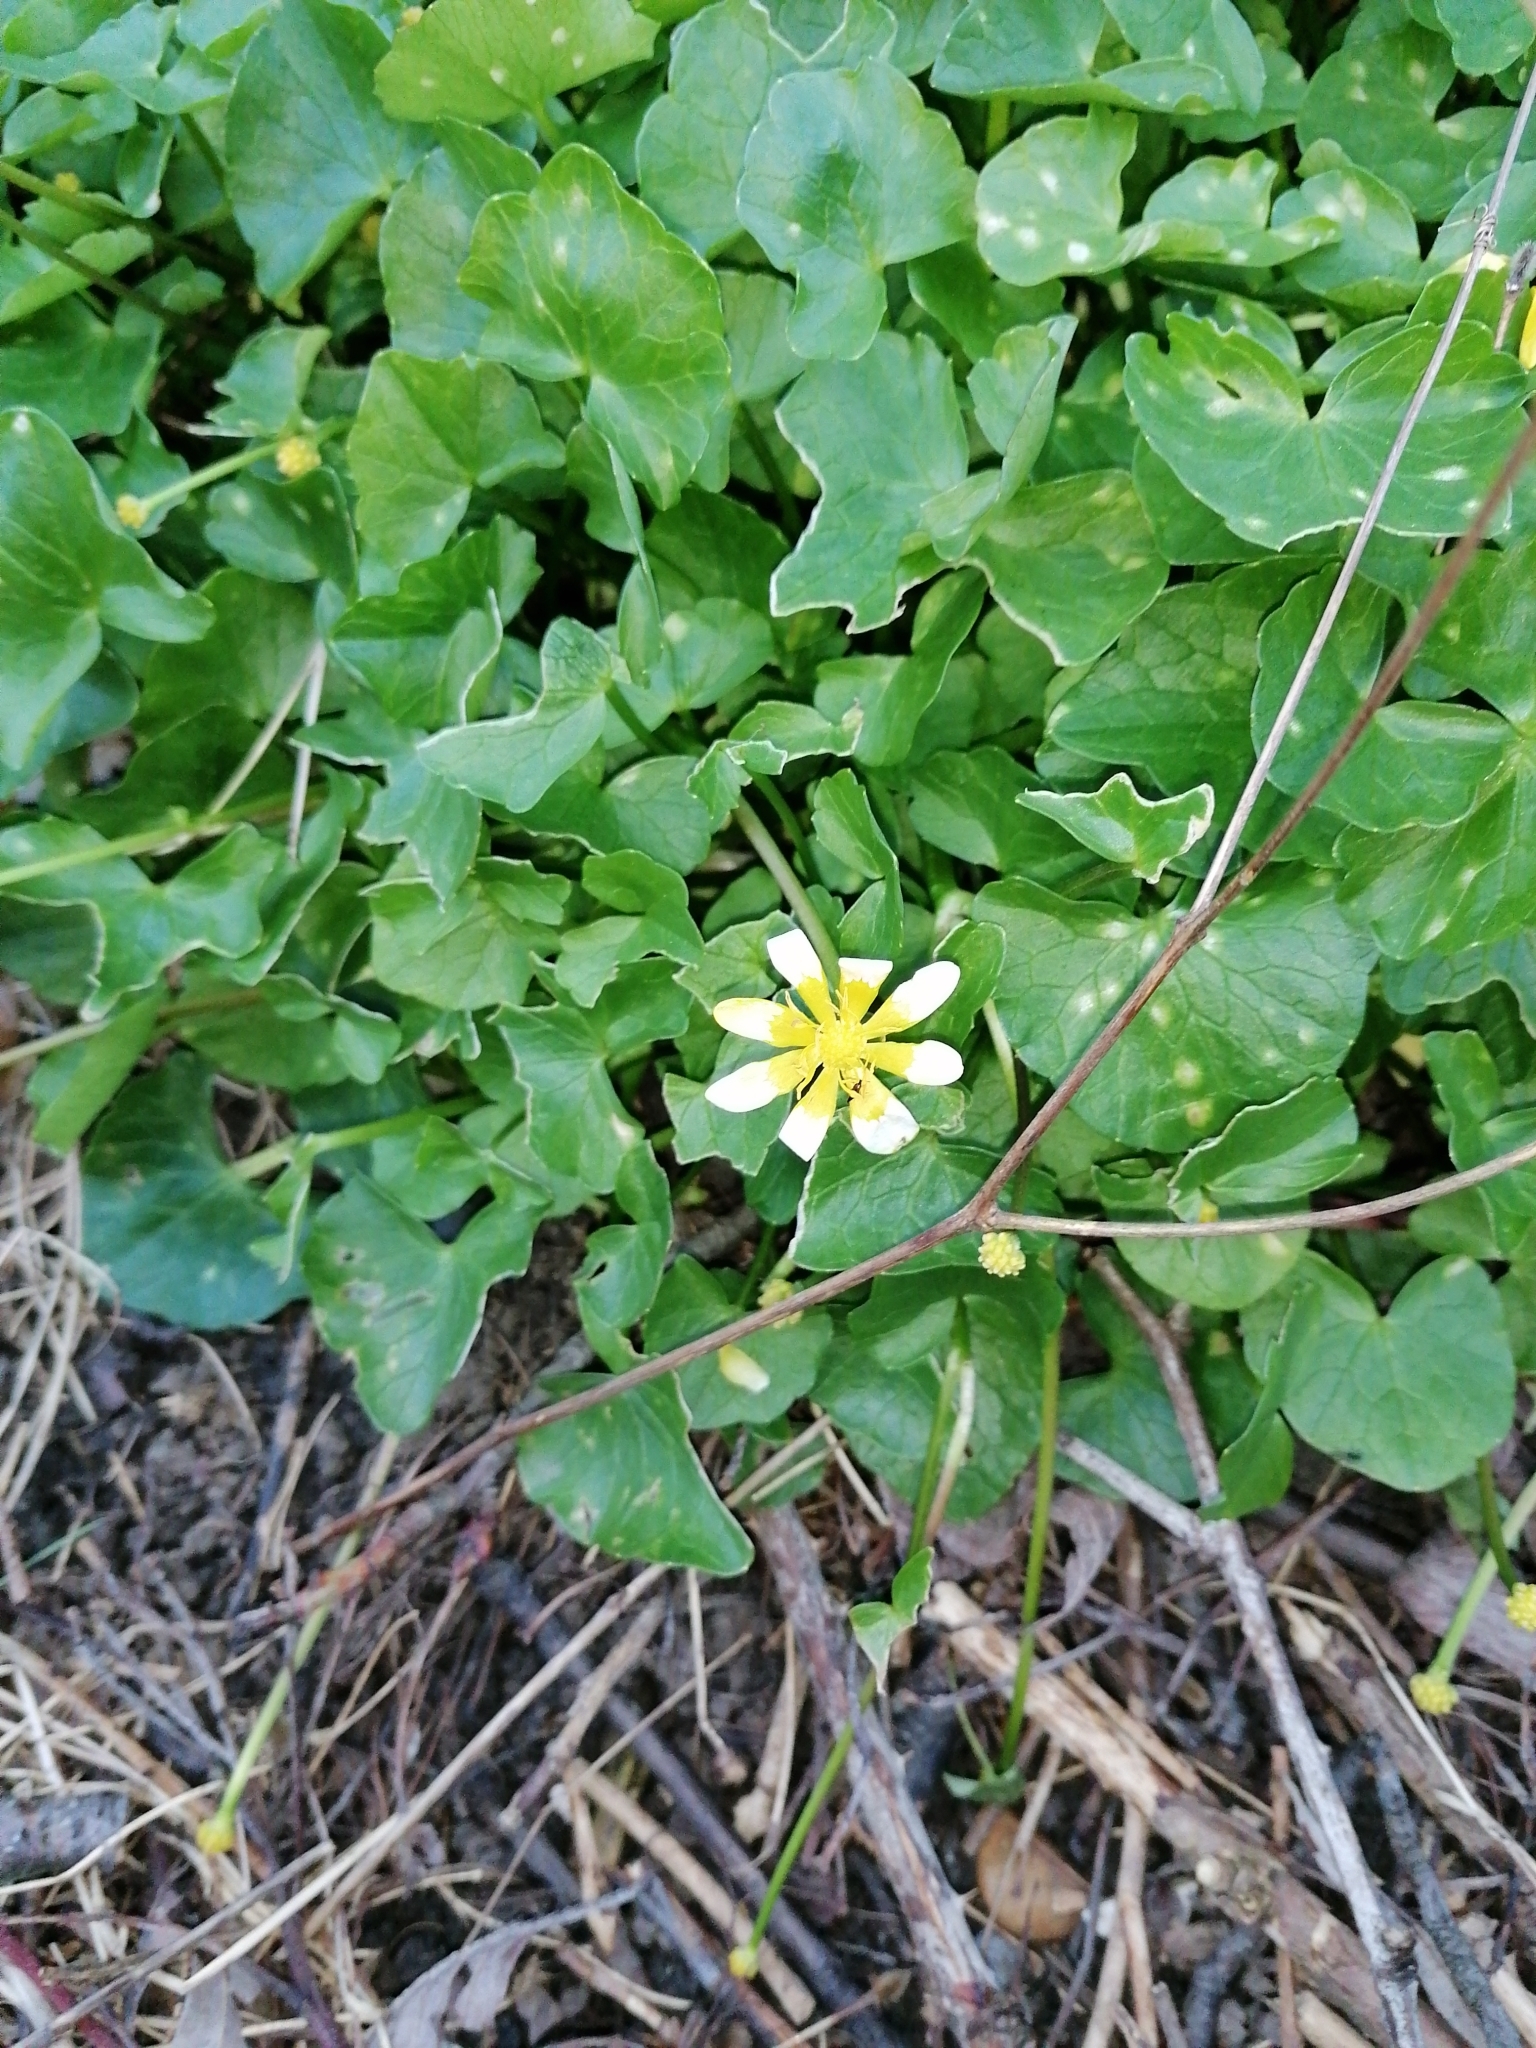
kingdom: Plantae
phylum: Tracheophyta
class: Magnoliopsida
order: Ranunculales
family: Ranunculaceae
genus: Ficaria
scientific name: Ficaria verna
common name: Lesser celandine
